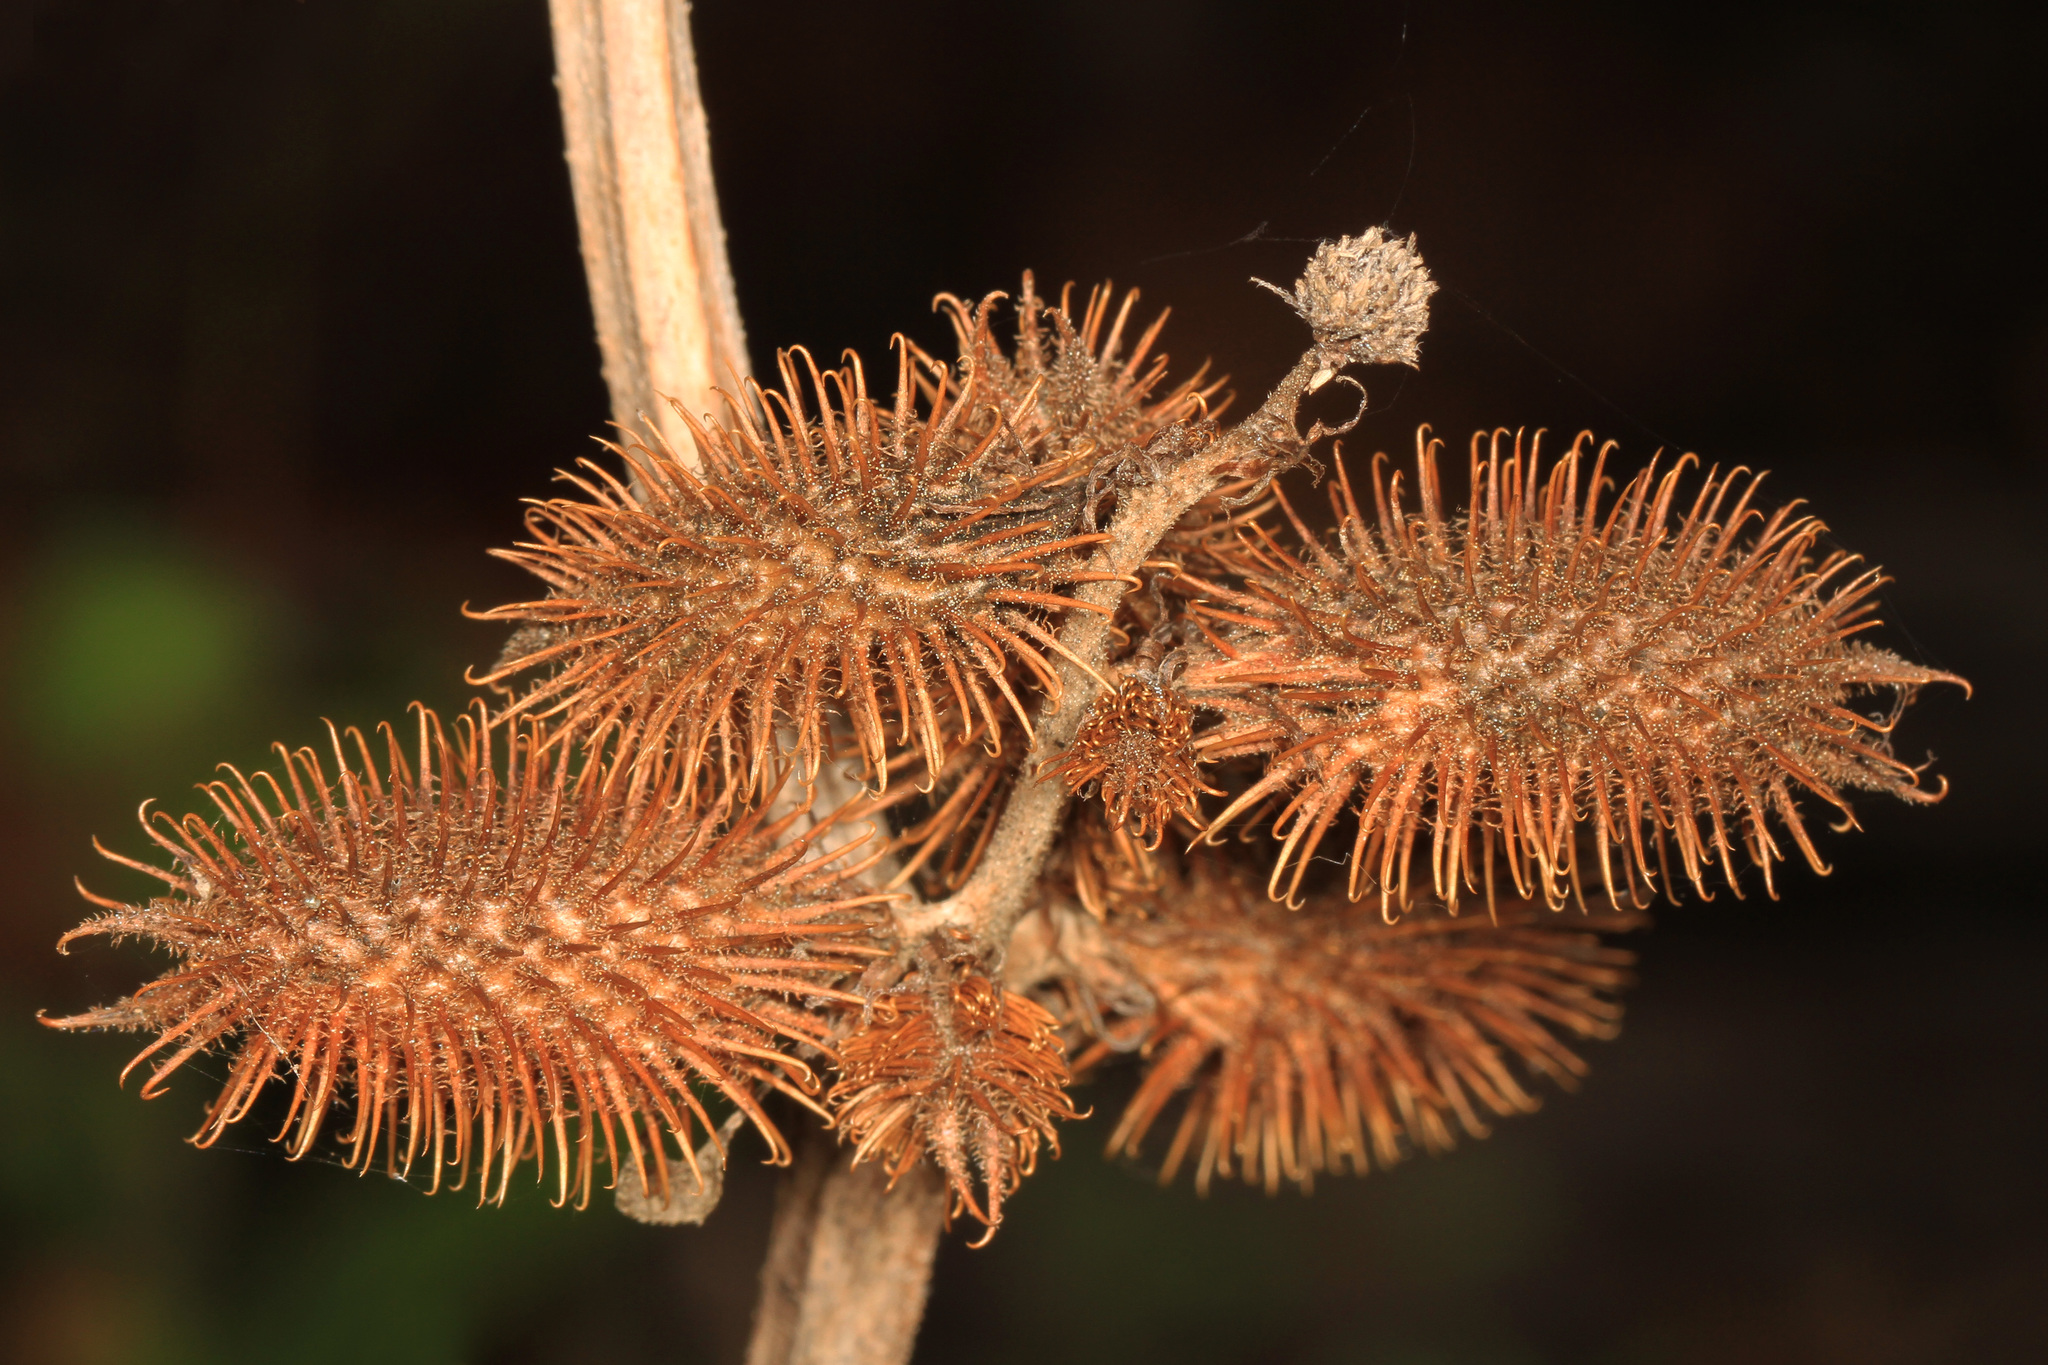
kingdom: Plantae
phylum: Tracheophyta
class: Magnoliopsida
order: Asterales
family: Asteraceae
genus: Xanthium
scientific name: Xanthium strumarium
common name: Rough cocklebur
